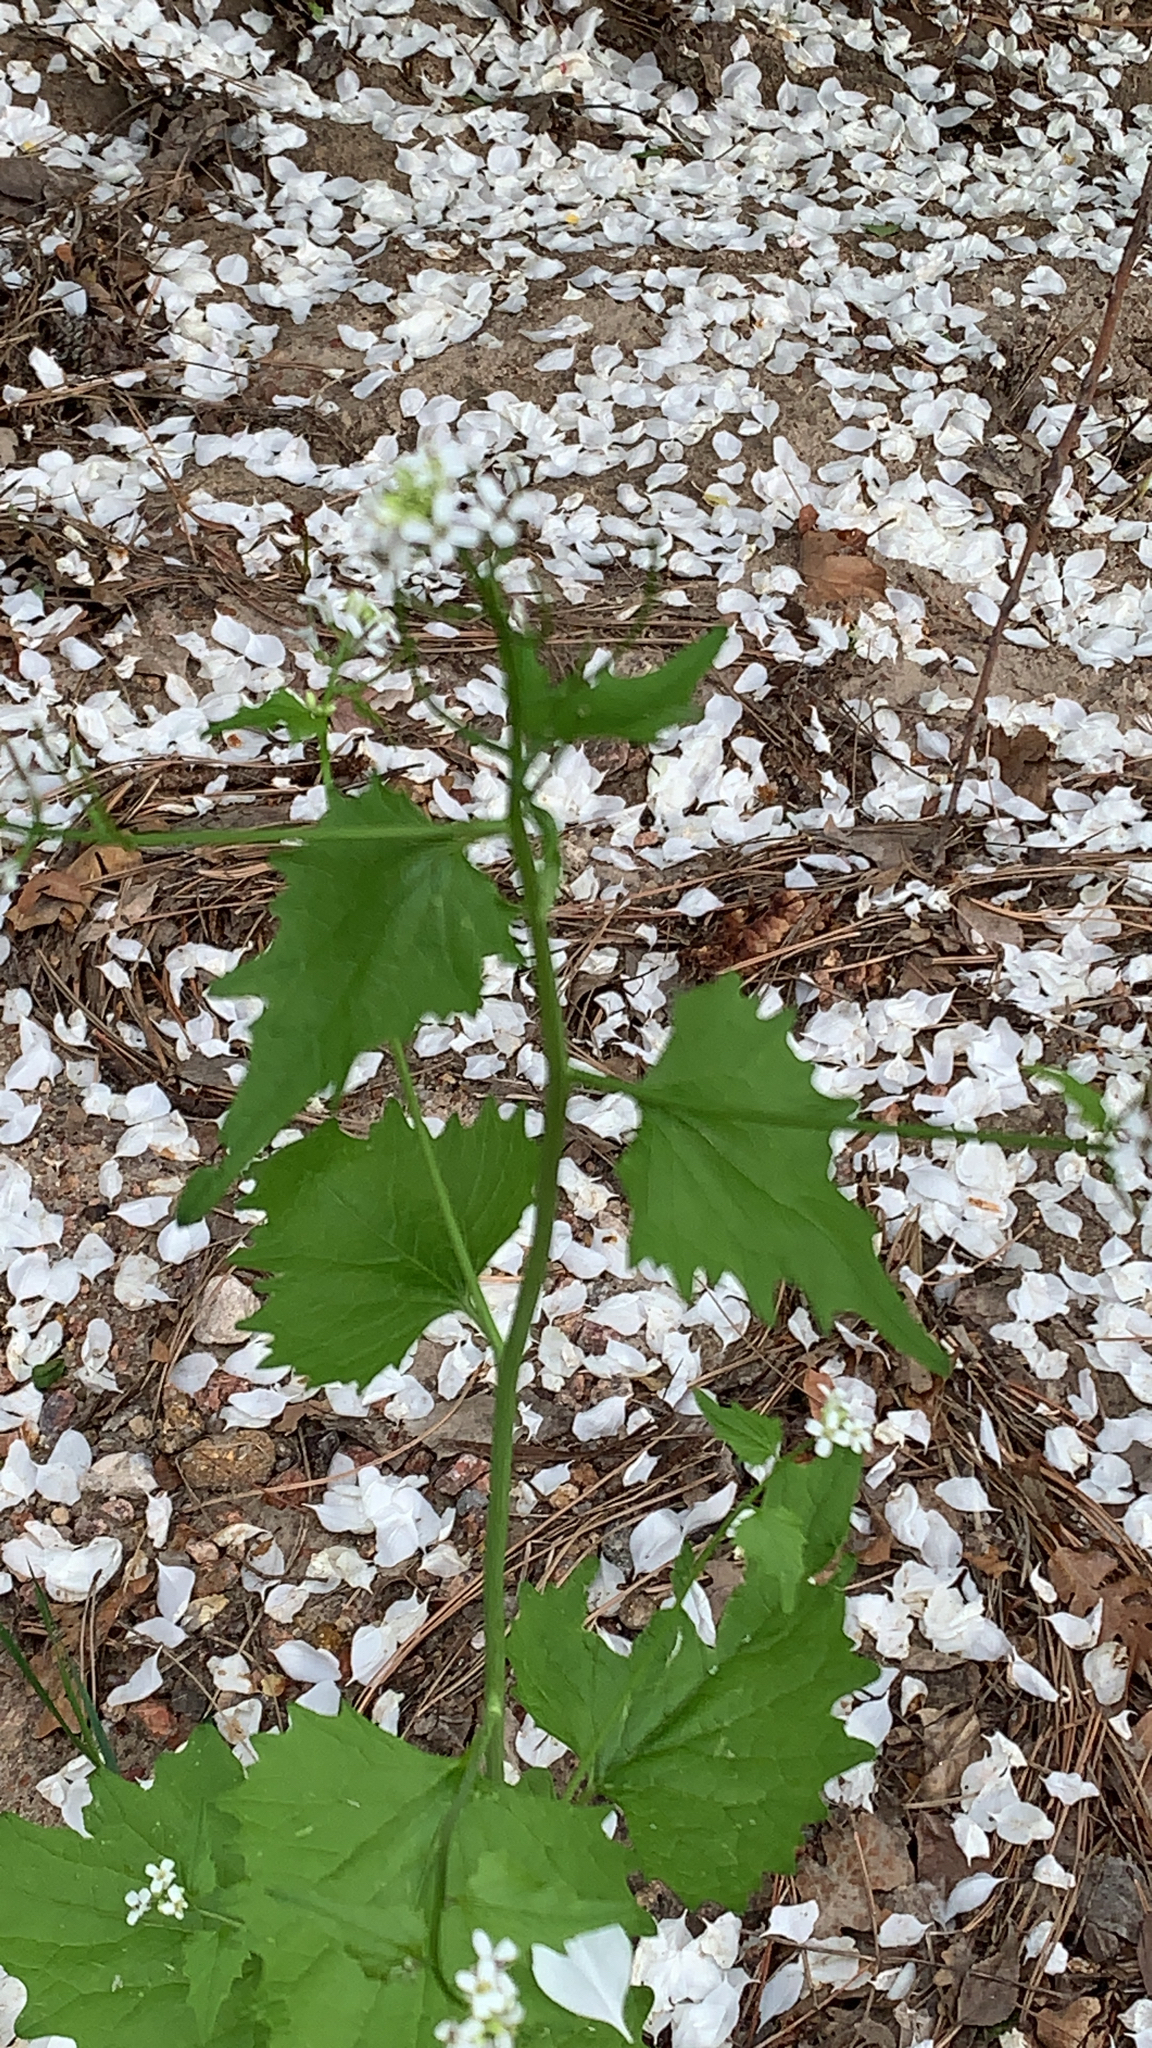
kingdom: Plantae
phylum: Tracheophyta
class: Magnoliopsida
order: Brassicales
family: Brassicaceae
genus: Alliaria
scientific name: Alliaria petiolata
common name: Garlic mustard
